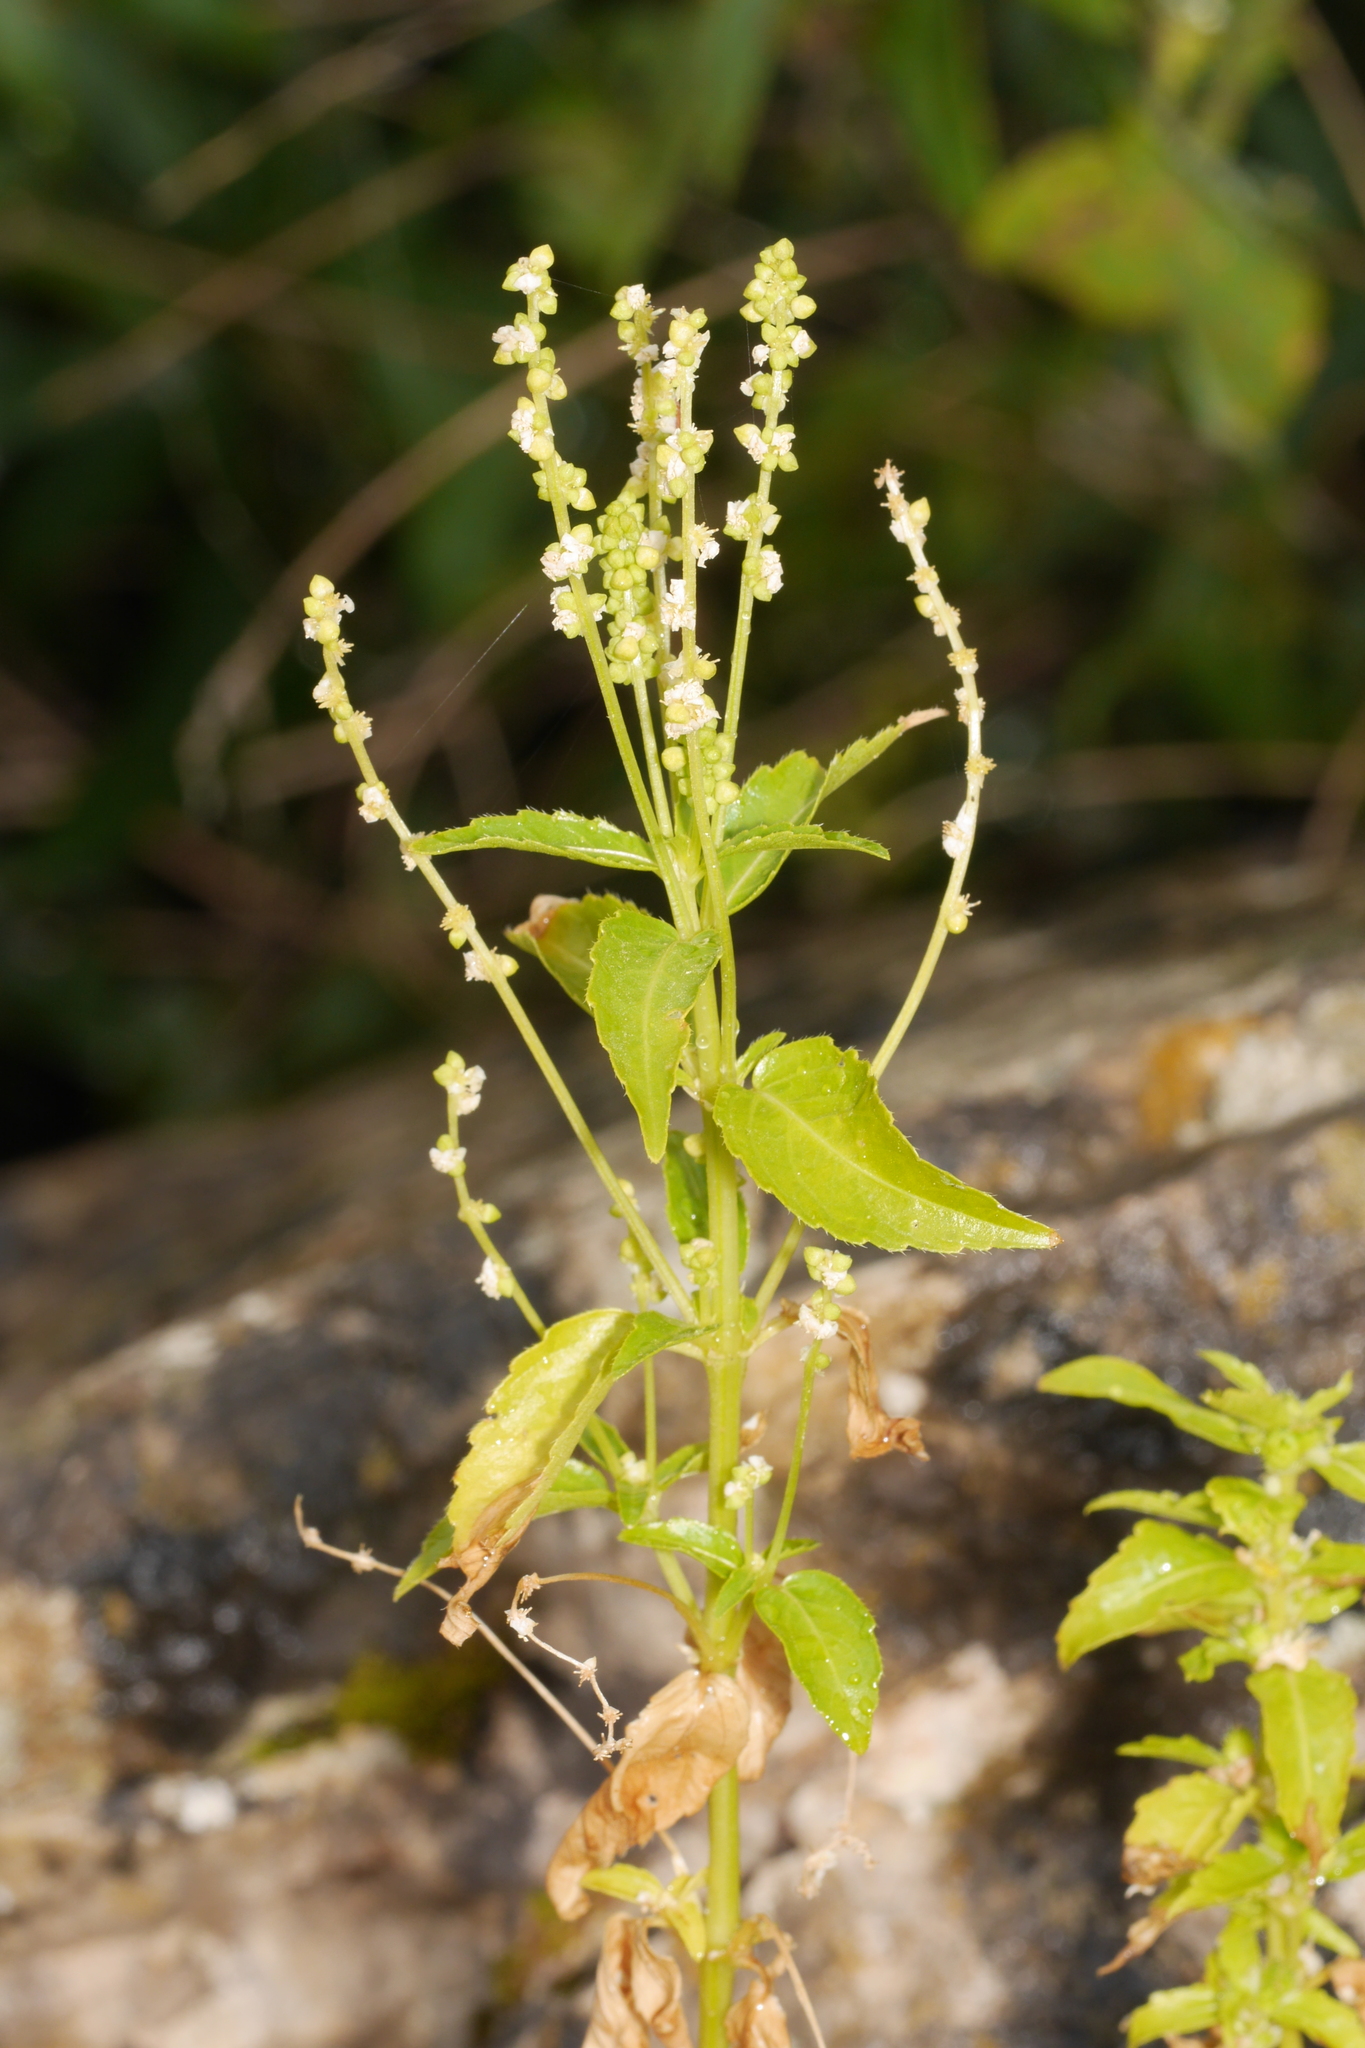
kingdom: Plantae
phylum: Tracheophyta
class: Magnoliopsida
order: Malpighiales
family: Euphorbiaceae
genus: Mercurialis
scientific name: Mercurialis annua
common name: Annual mercury
